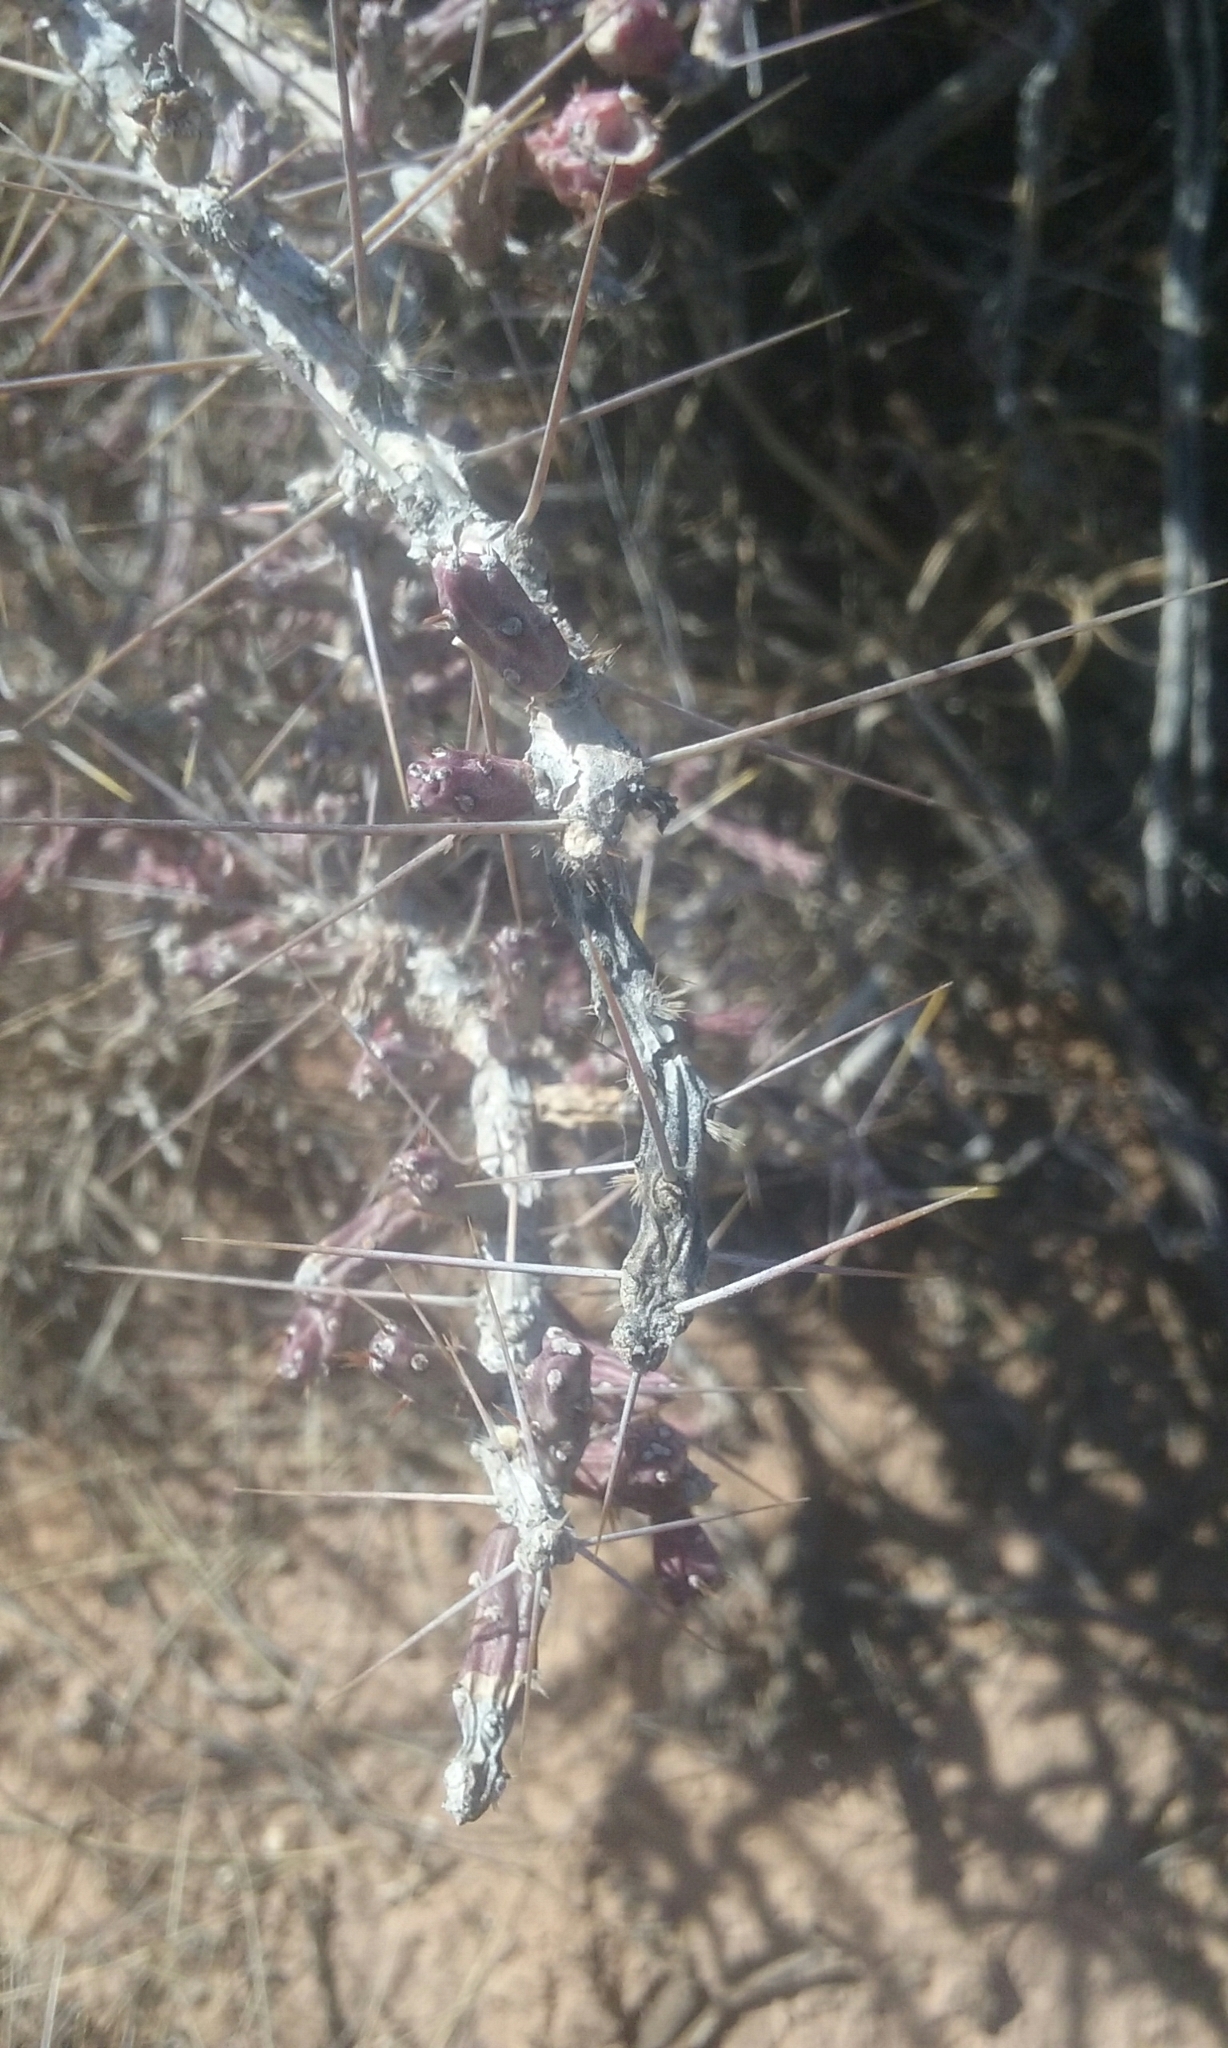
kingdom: Plantae
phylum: Tracheophyta
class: Magnoliopsida
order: Caryophyllales
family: Cactaceae
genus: Cylindropuntia
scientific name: Cylindropuntia leptocaulis
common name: Christmas cactus
